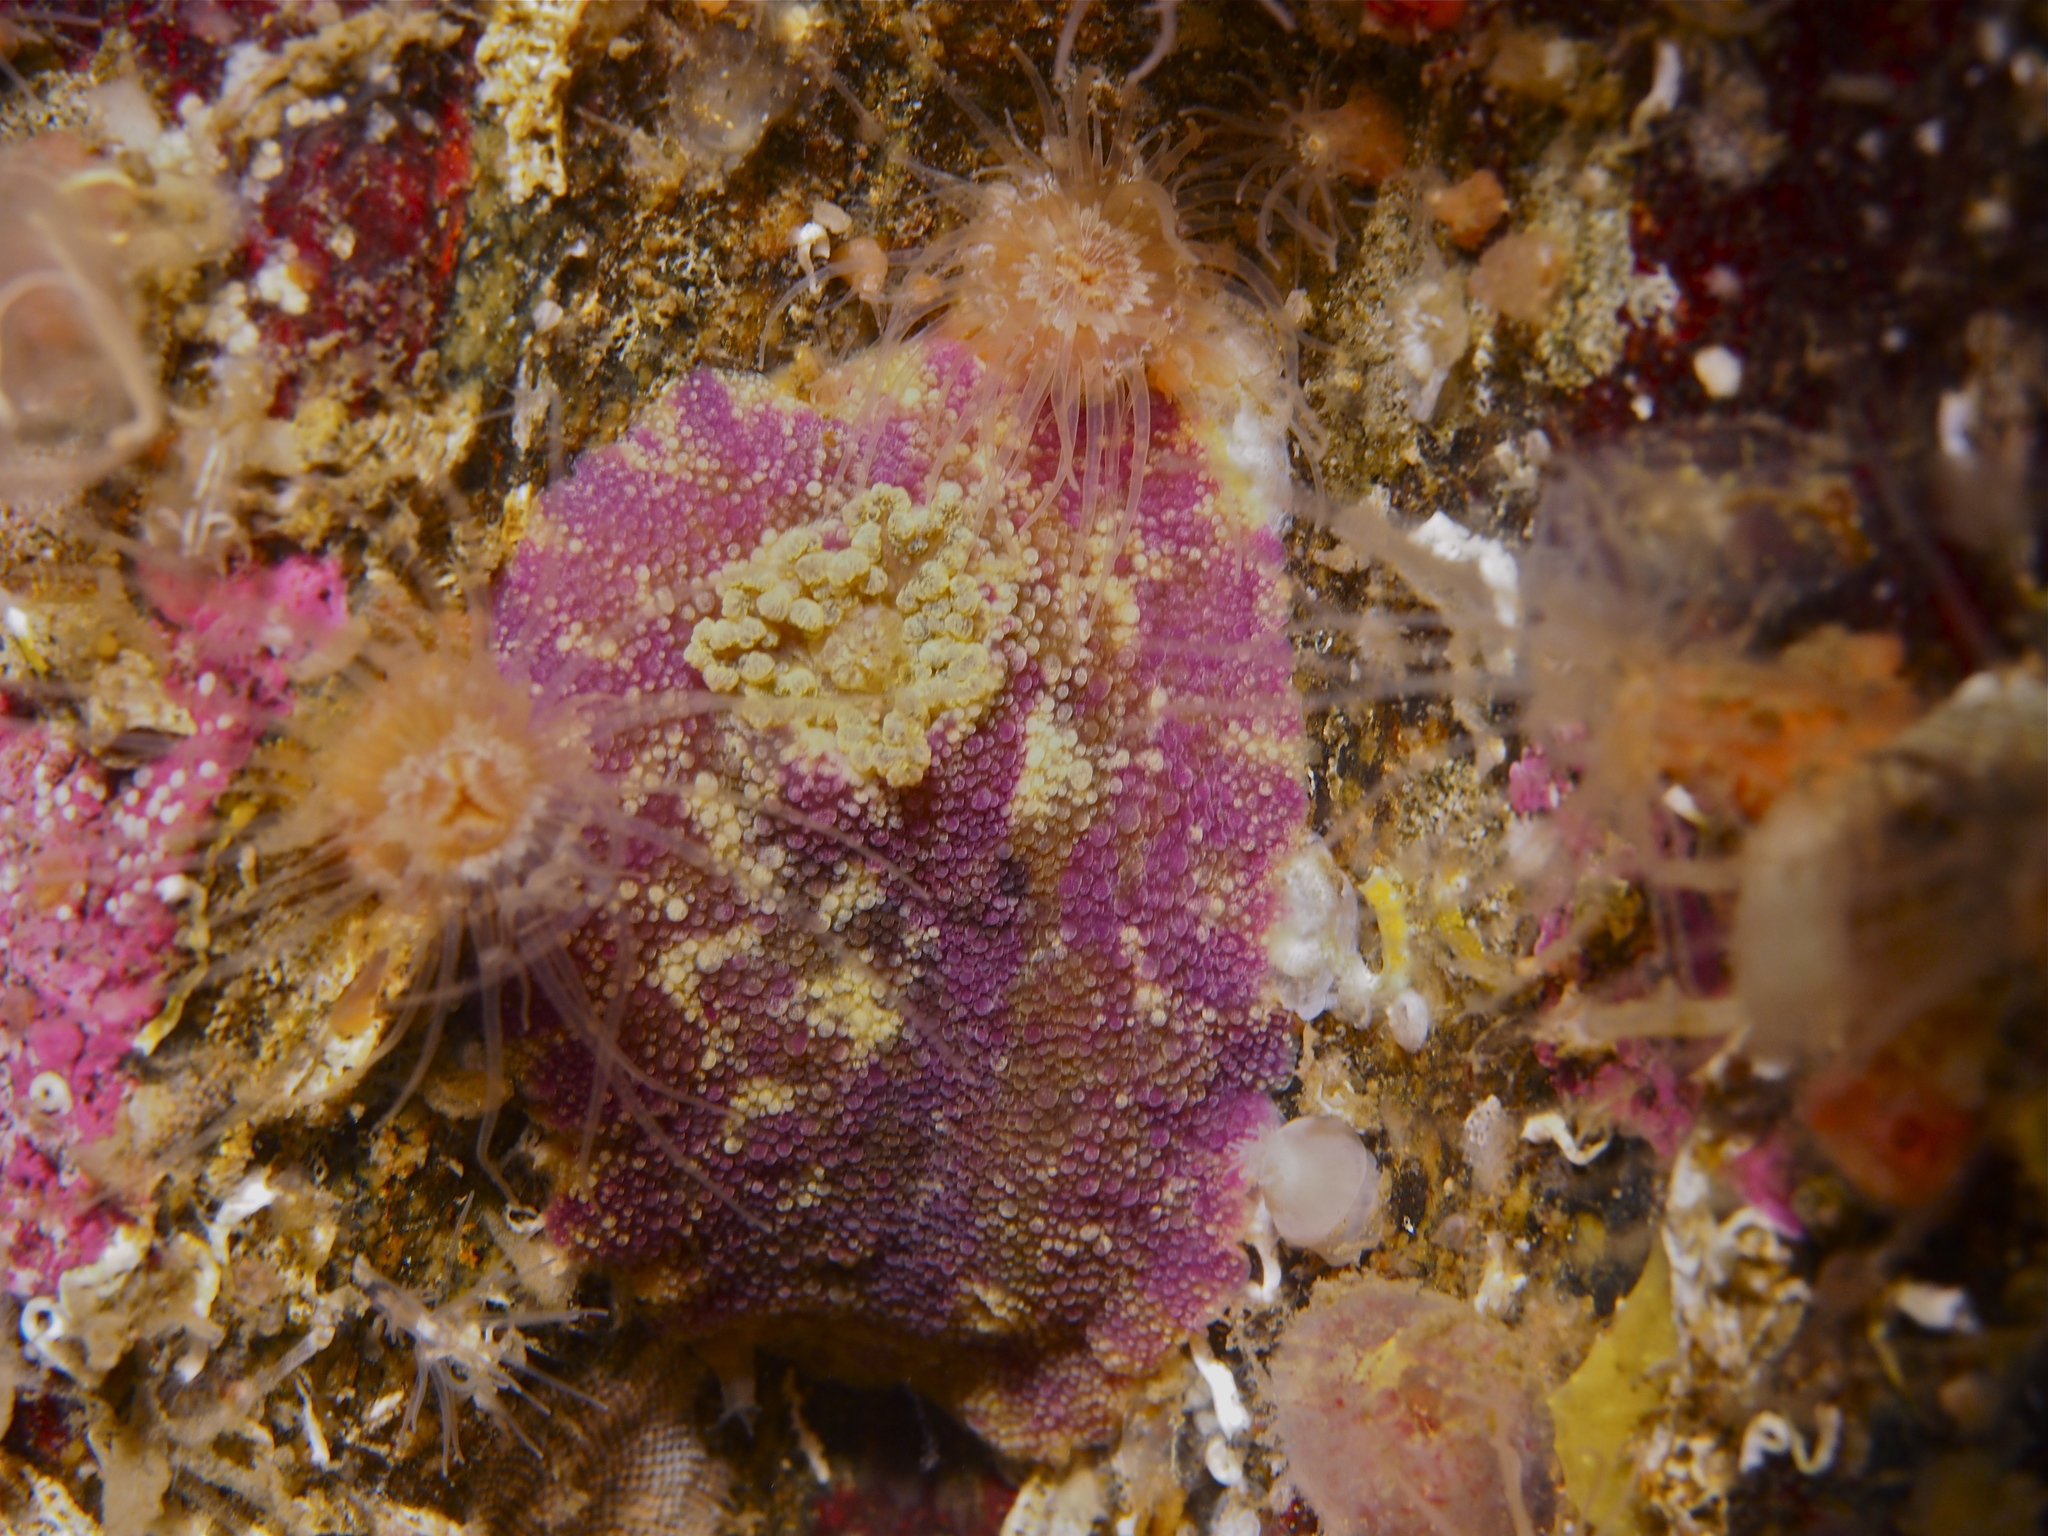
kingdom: Animalia
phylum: Mollusca
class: Gastropoda
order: Nudibranchia
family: Dorididae
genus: Doris
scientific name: Doris pseudoargus
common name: Sea lemon
